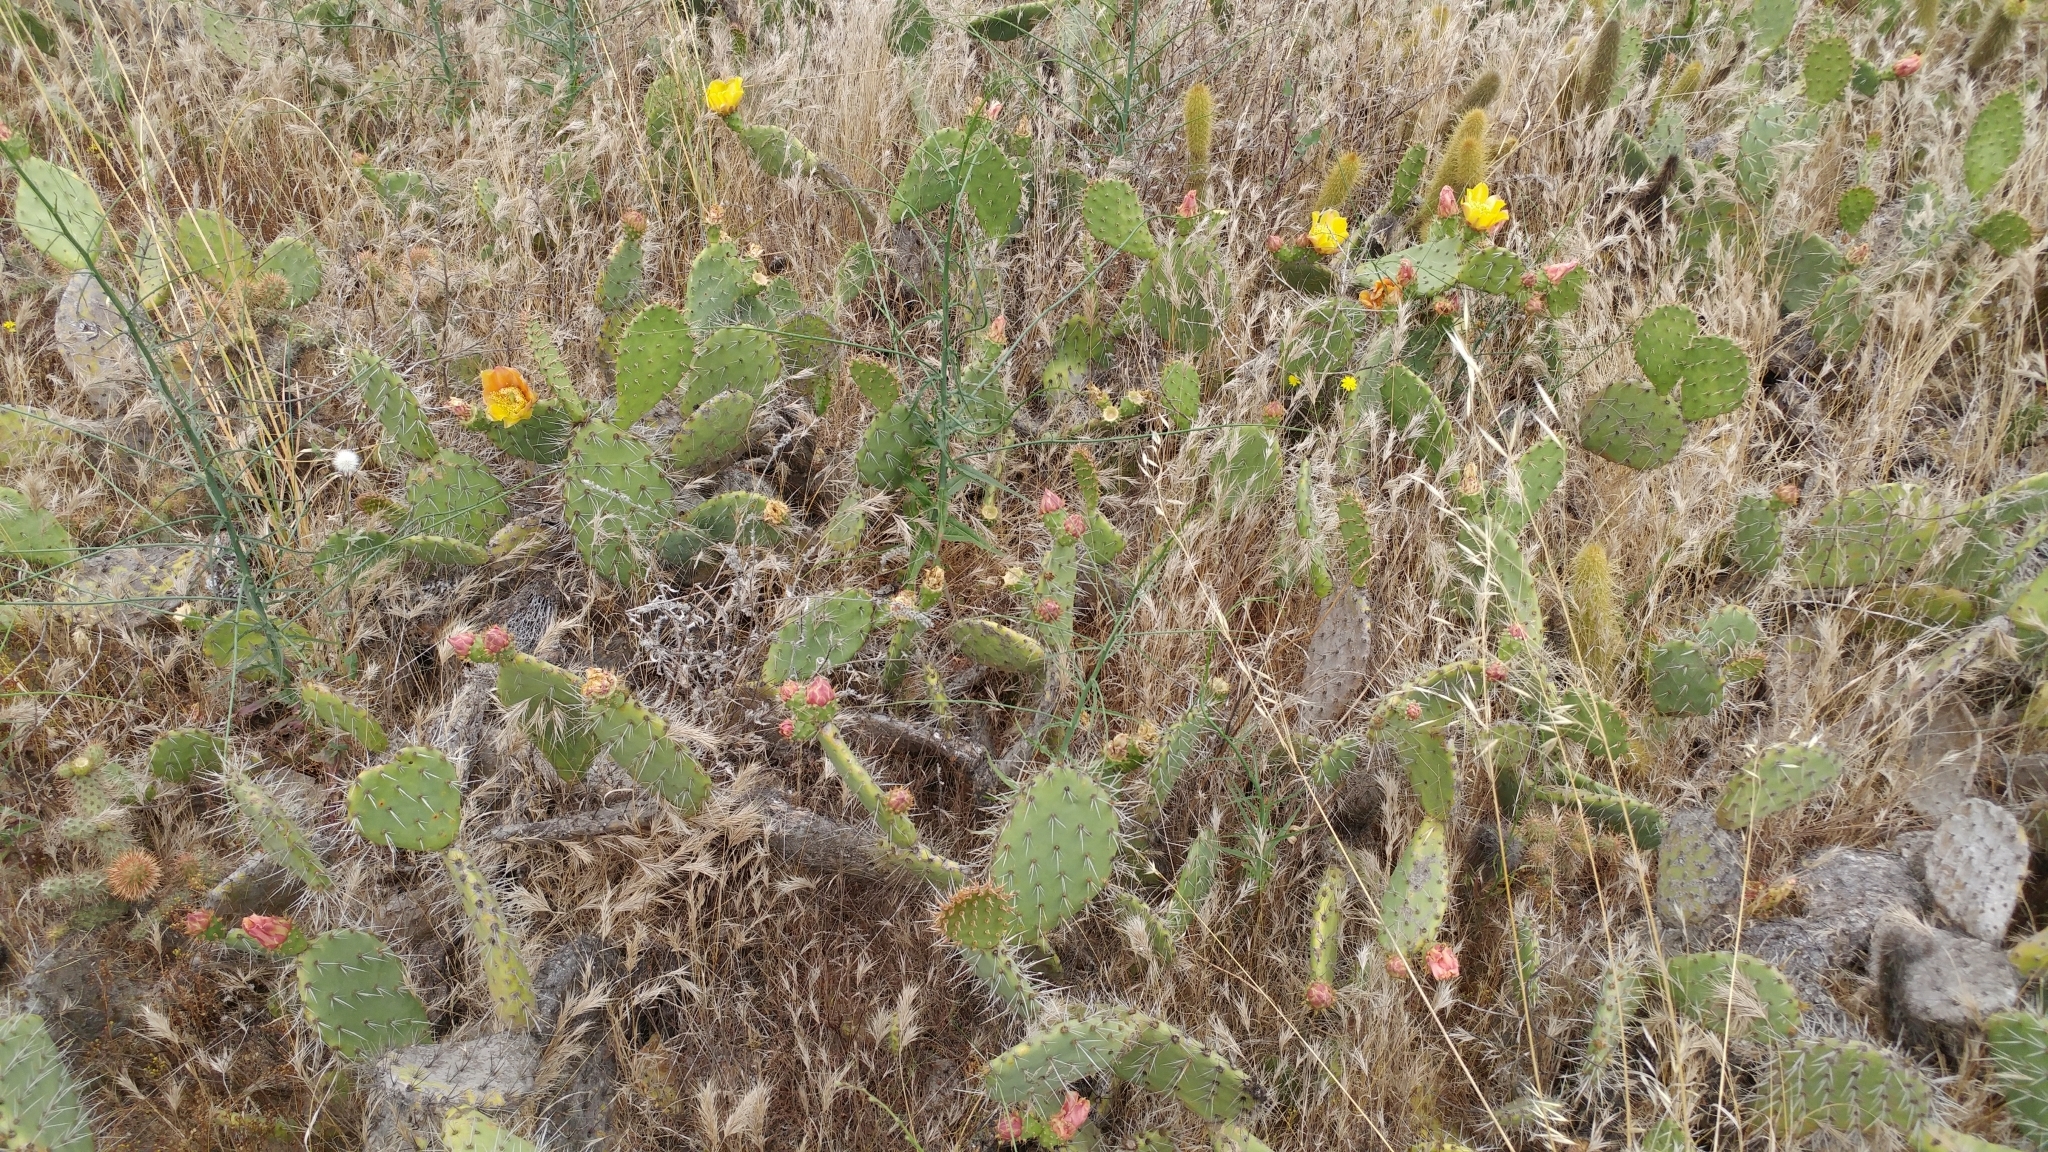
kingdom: Plantae
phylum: Tracheophyta
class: Magnoliopsida
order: Caryophyllales
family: Cactaceae
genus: Opuntia
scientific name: Opuntia littoralis
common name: Coastal prickly-pear
